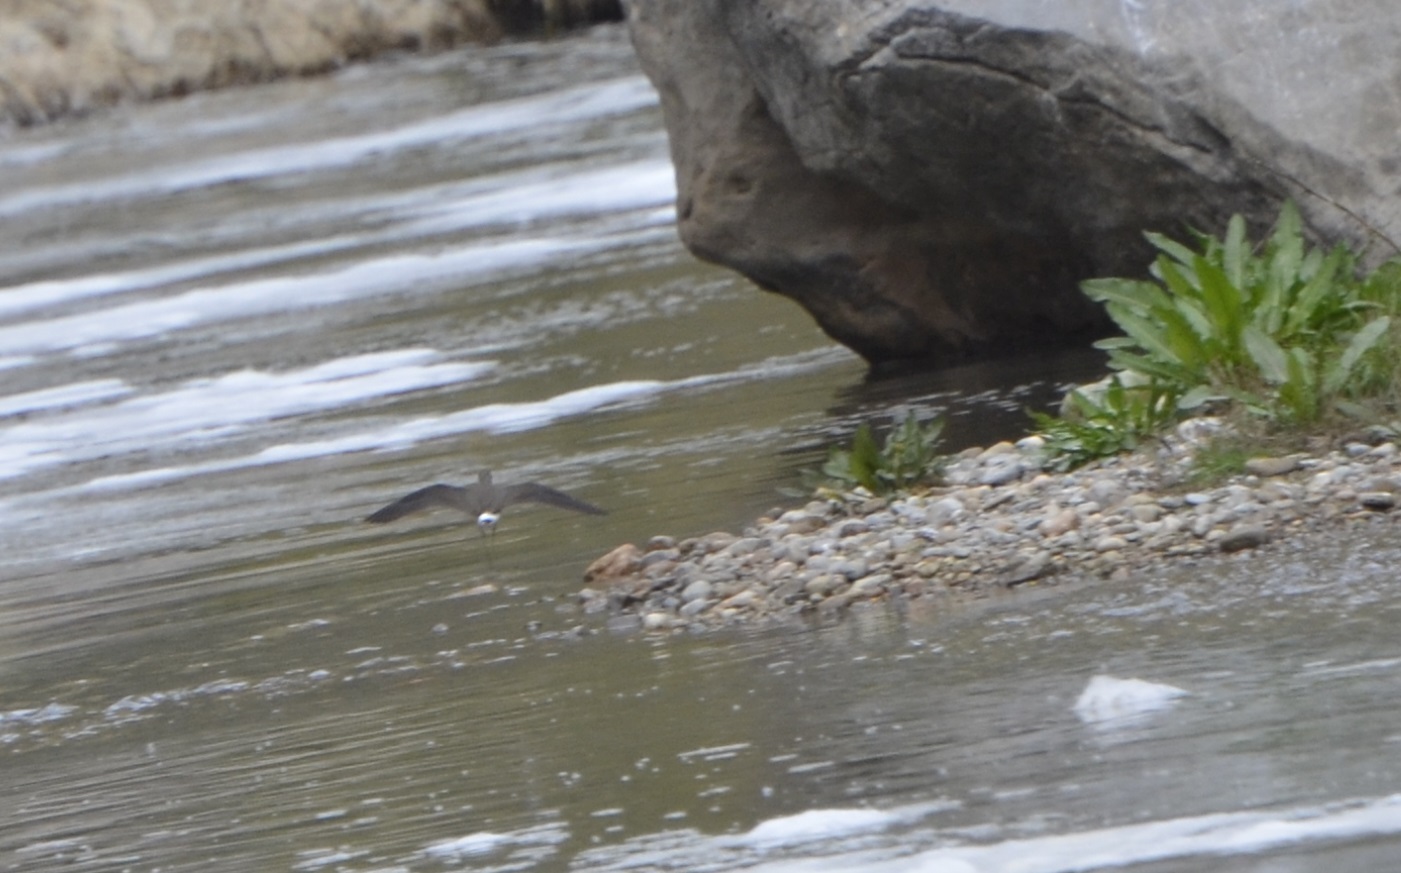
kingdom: Animalia
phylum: Chordata
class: Aves
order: Charadriiformes
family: Scolopacidae
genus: Tringa
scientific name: Tringa ochropus
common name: Green sandpiper
